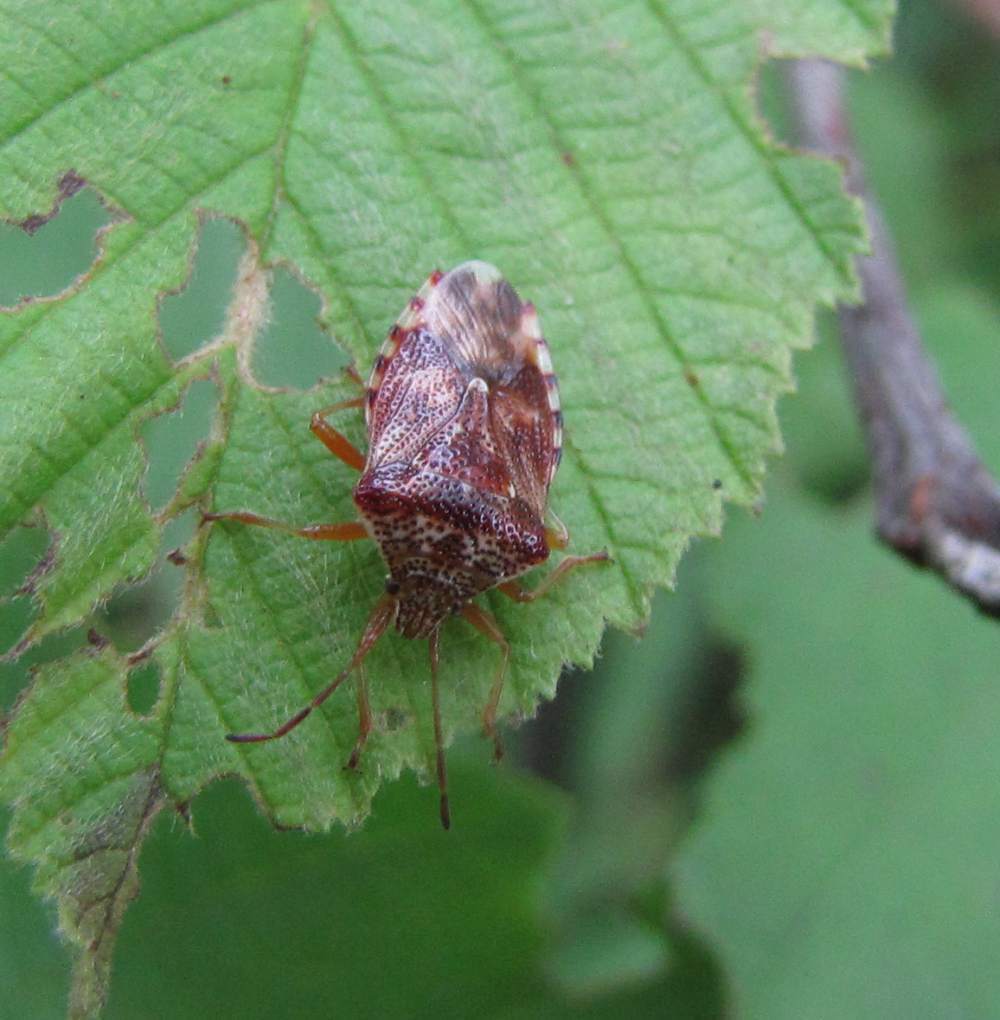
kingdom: Animalia
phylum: Arthropoda
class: Insecta
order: Hemiptera
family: Acanthosomatidae
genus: Elasmucha
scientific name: Elasmucha lateralis
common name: Shield bug
